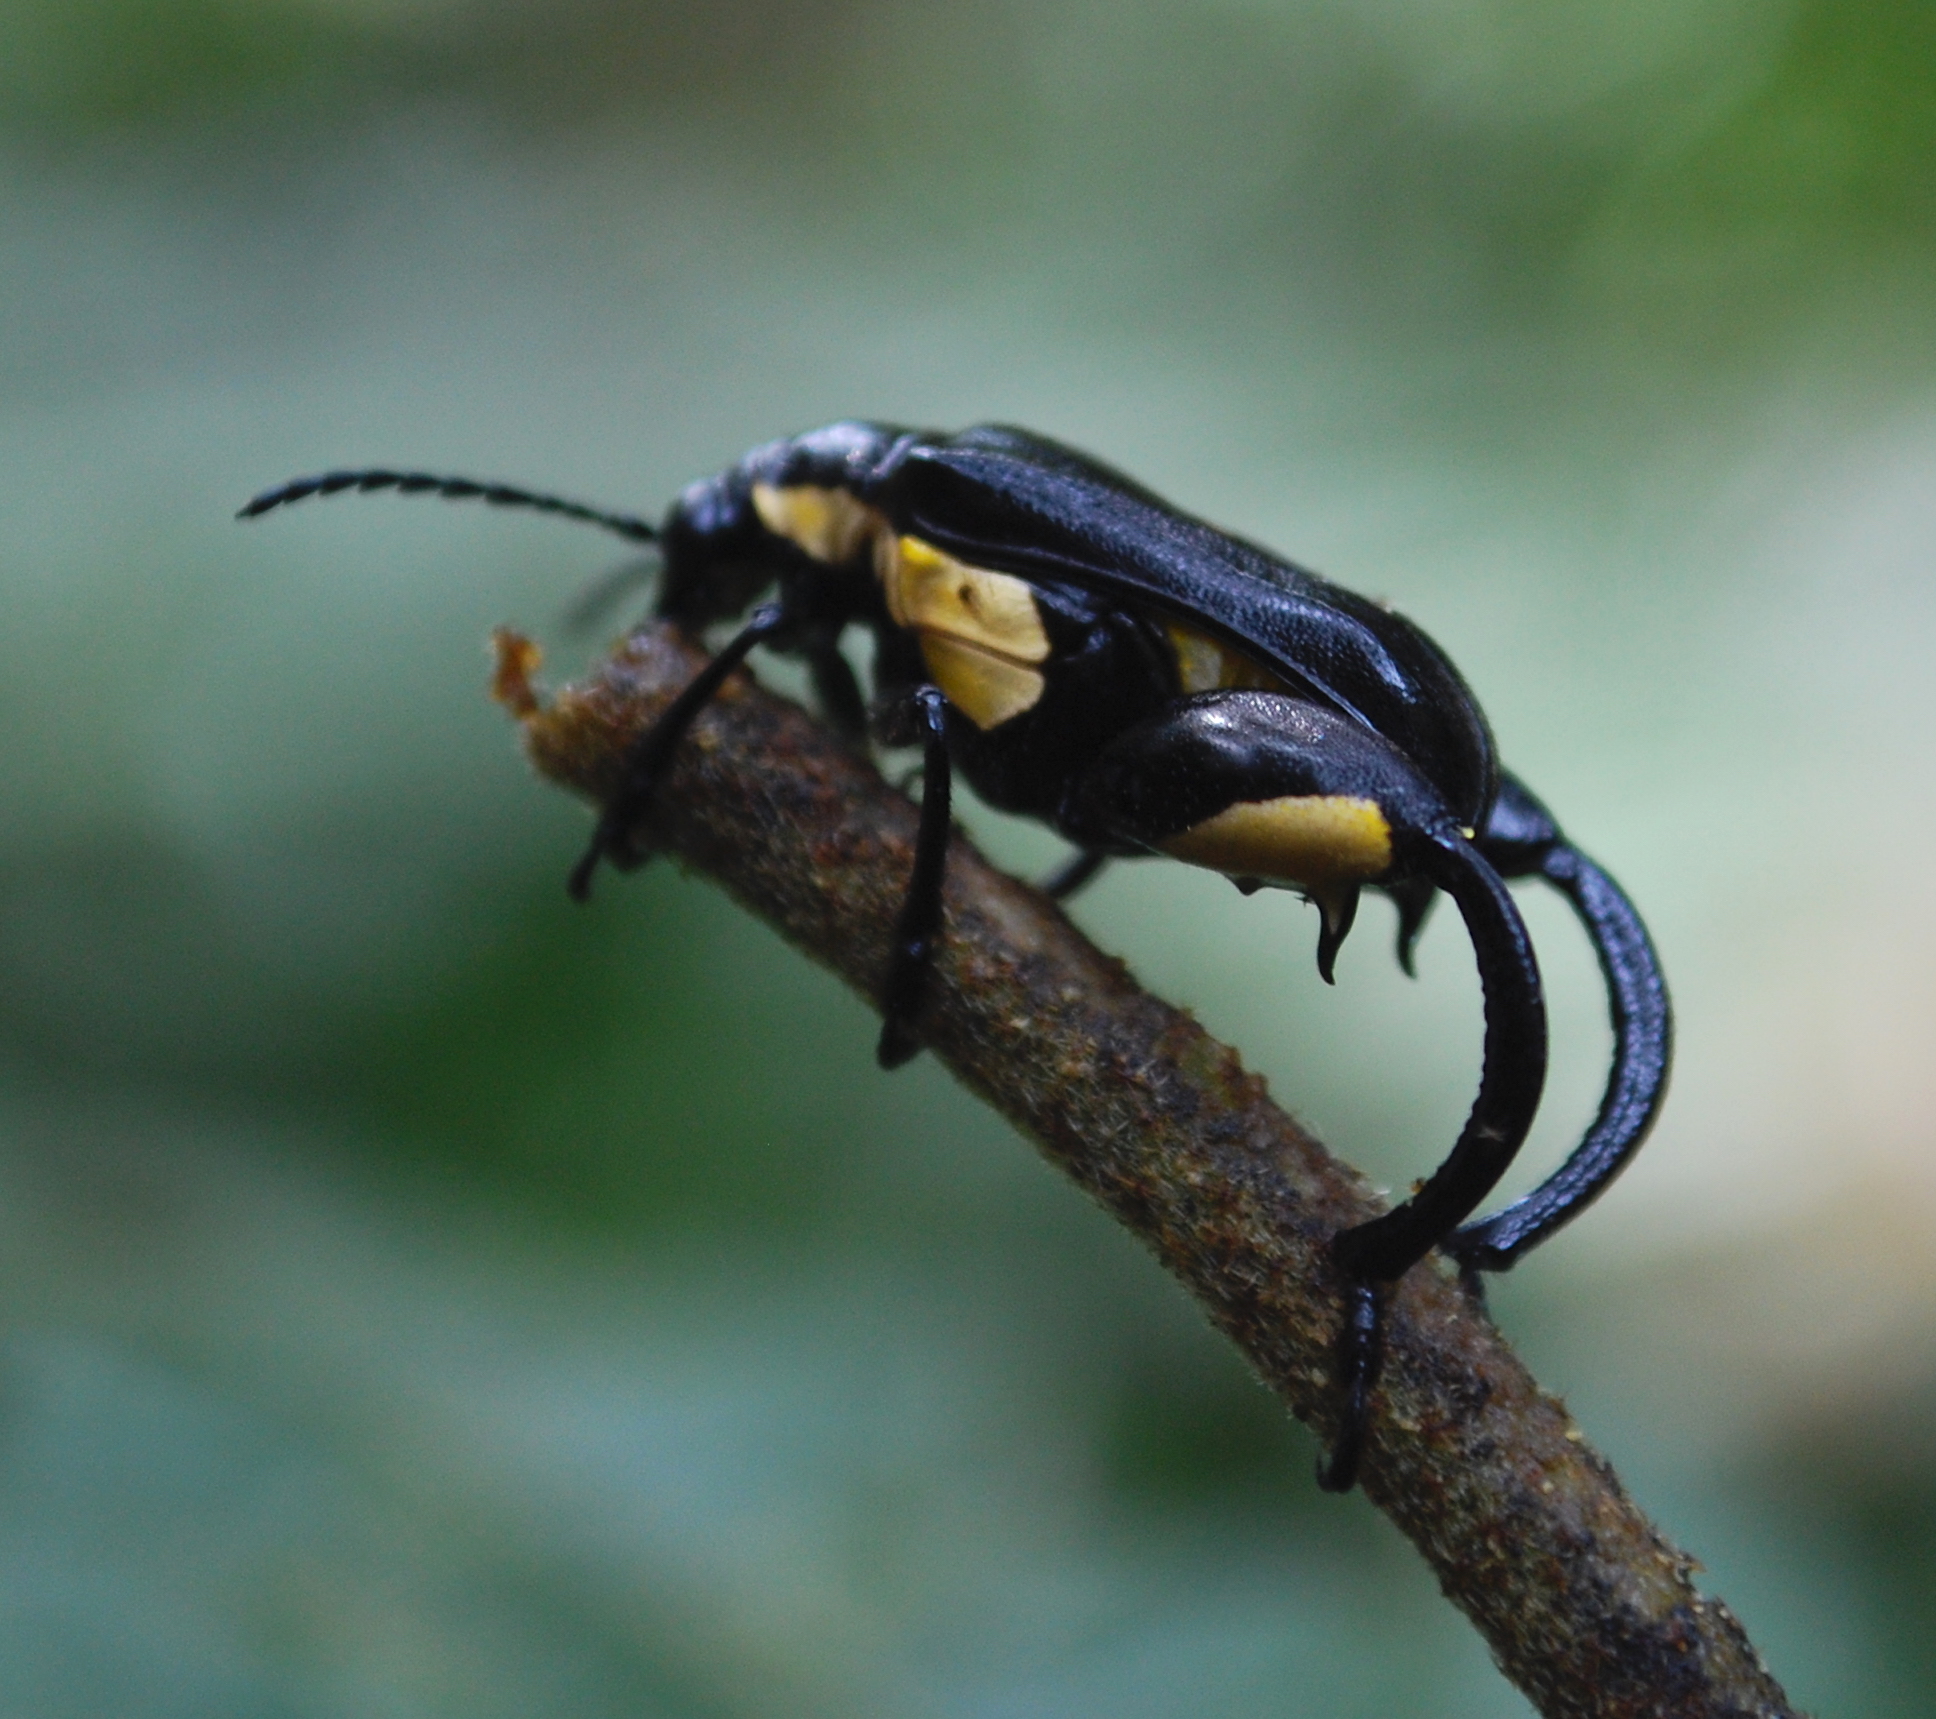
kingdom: Animalia
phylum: Arthropoda
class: Insecta
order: Coleoptera
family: Megalopodidae
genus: Megalopus
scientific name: Megalopus armatus
